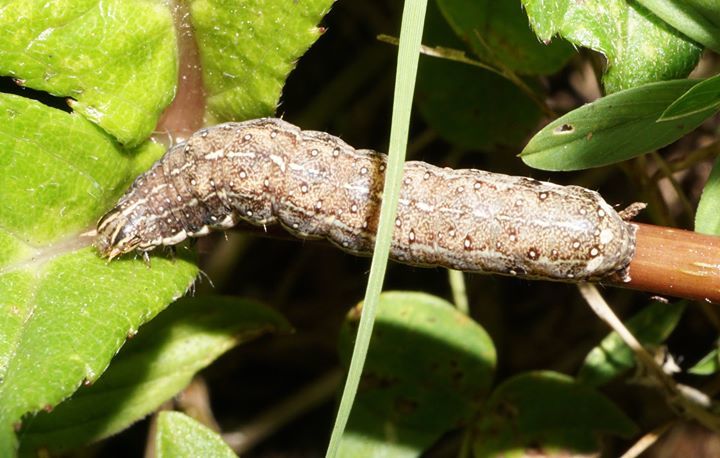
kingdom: Animalia
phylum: Arthropoda
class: Insecta
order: Lepidoptera
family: Noctuidae
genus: Condica
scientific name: Condica mobilis
